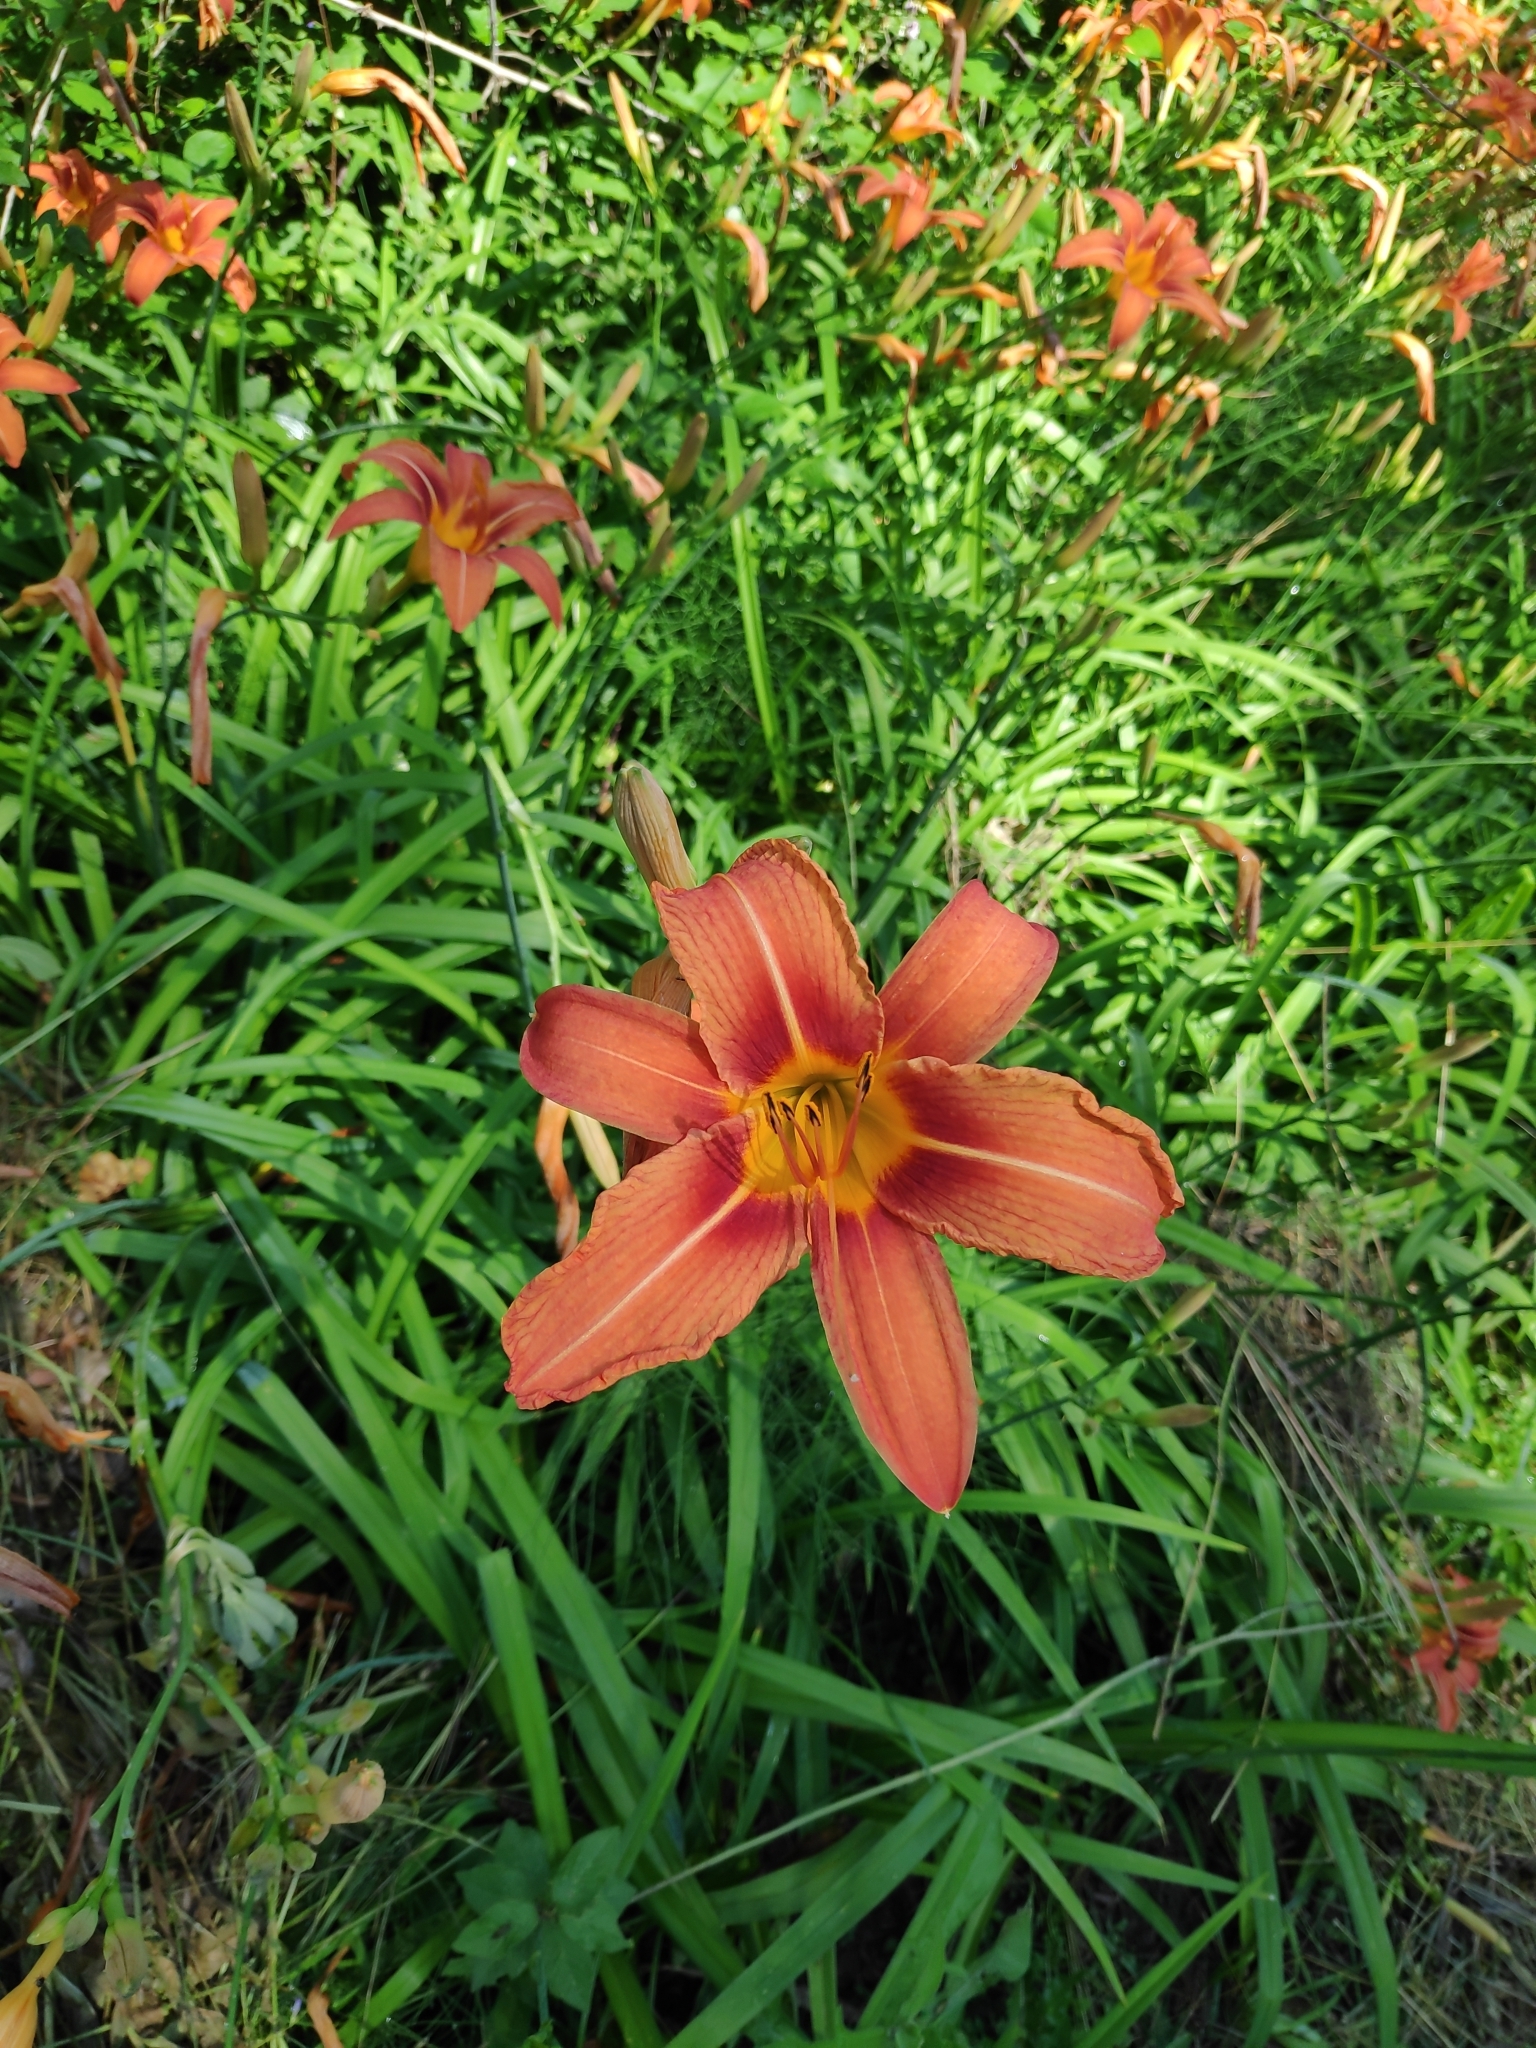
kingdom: Plantae
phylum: Tracheophyta
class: Liliopsida
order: Asparagales
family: Asphodelaceae
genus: Hemerocallis
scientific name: Hemerocallis fulva
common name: Orange day-lily
